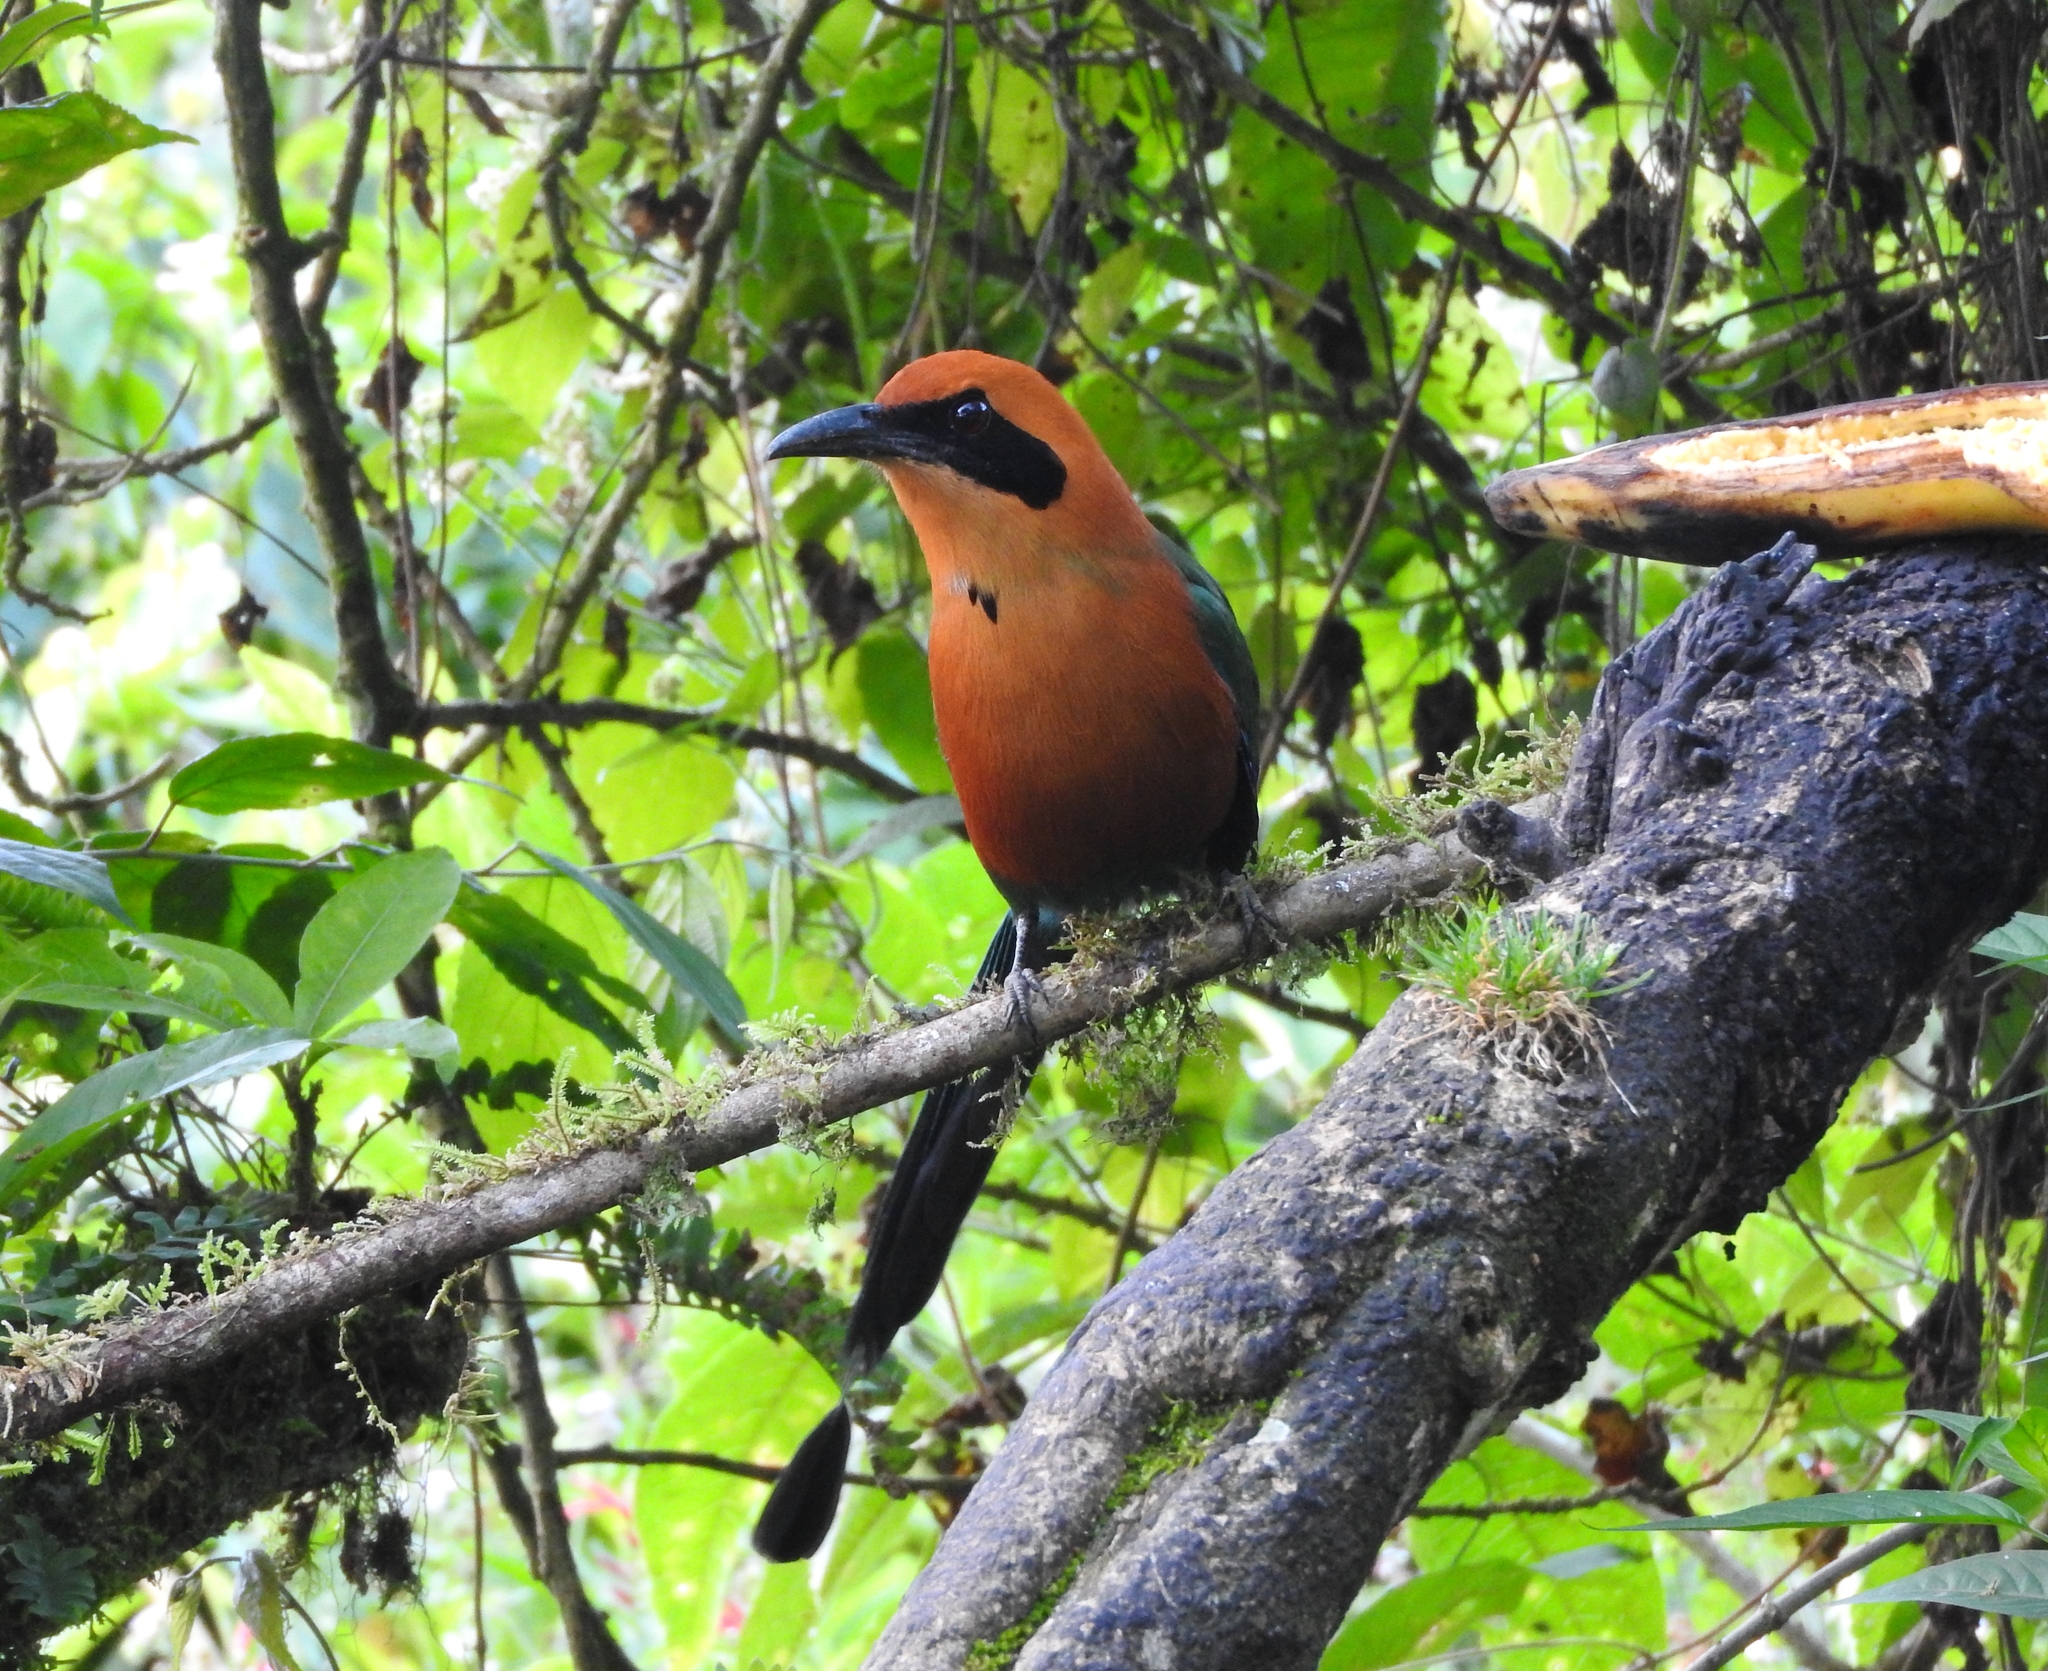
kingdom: Animalia
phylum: Chordata
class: Aves
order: Coraciiformes
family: Momotidae
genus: Baryphthengus
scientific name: Baryphthengus martii
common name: Rufous motmot
